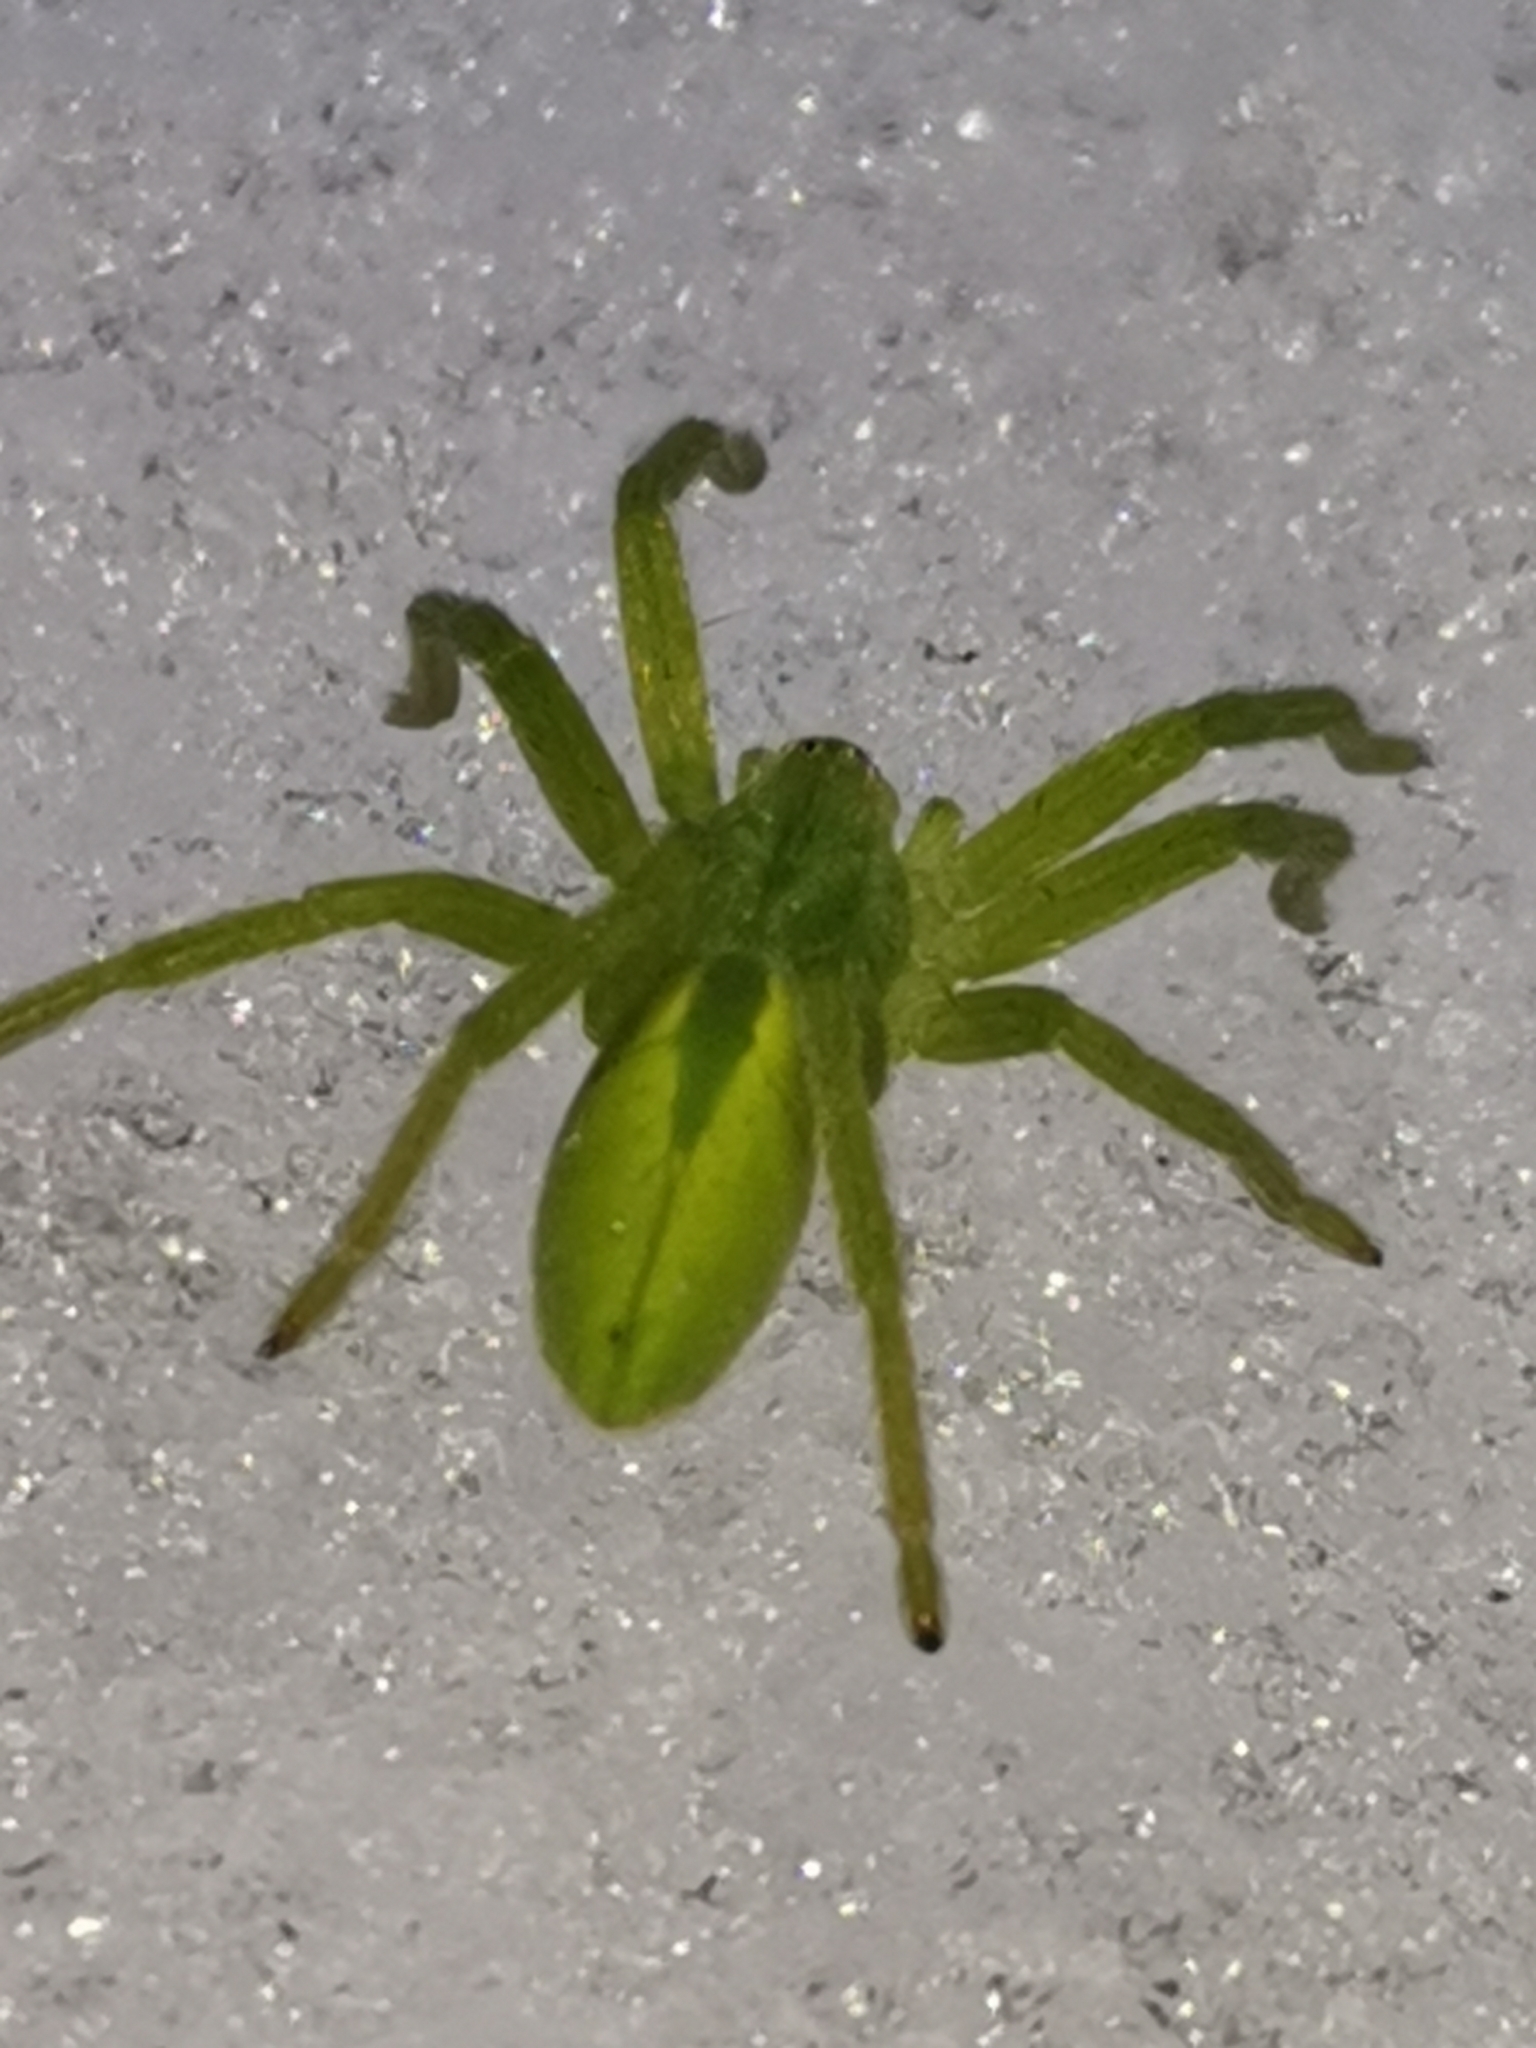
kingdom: Animalia
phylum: Arthropoda
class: Arachnida
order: Araneae
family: Sparassidae
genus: Micrommata
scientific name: Micrommata virescens
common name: Green spider
